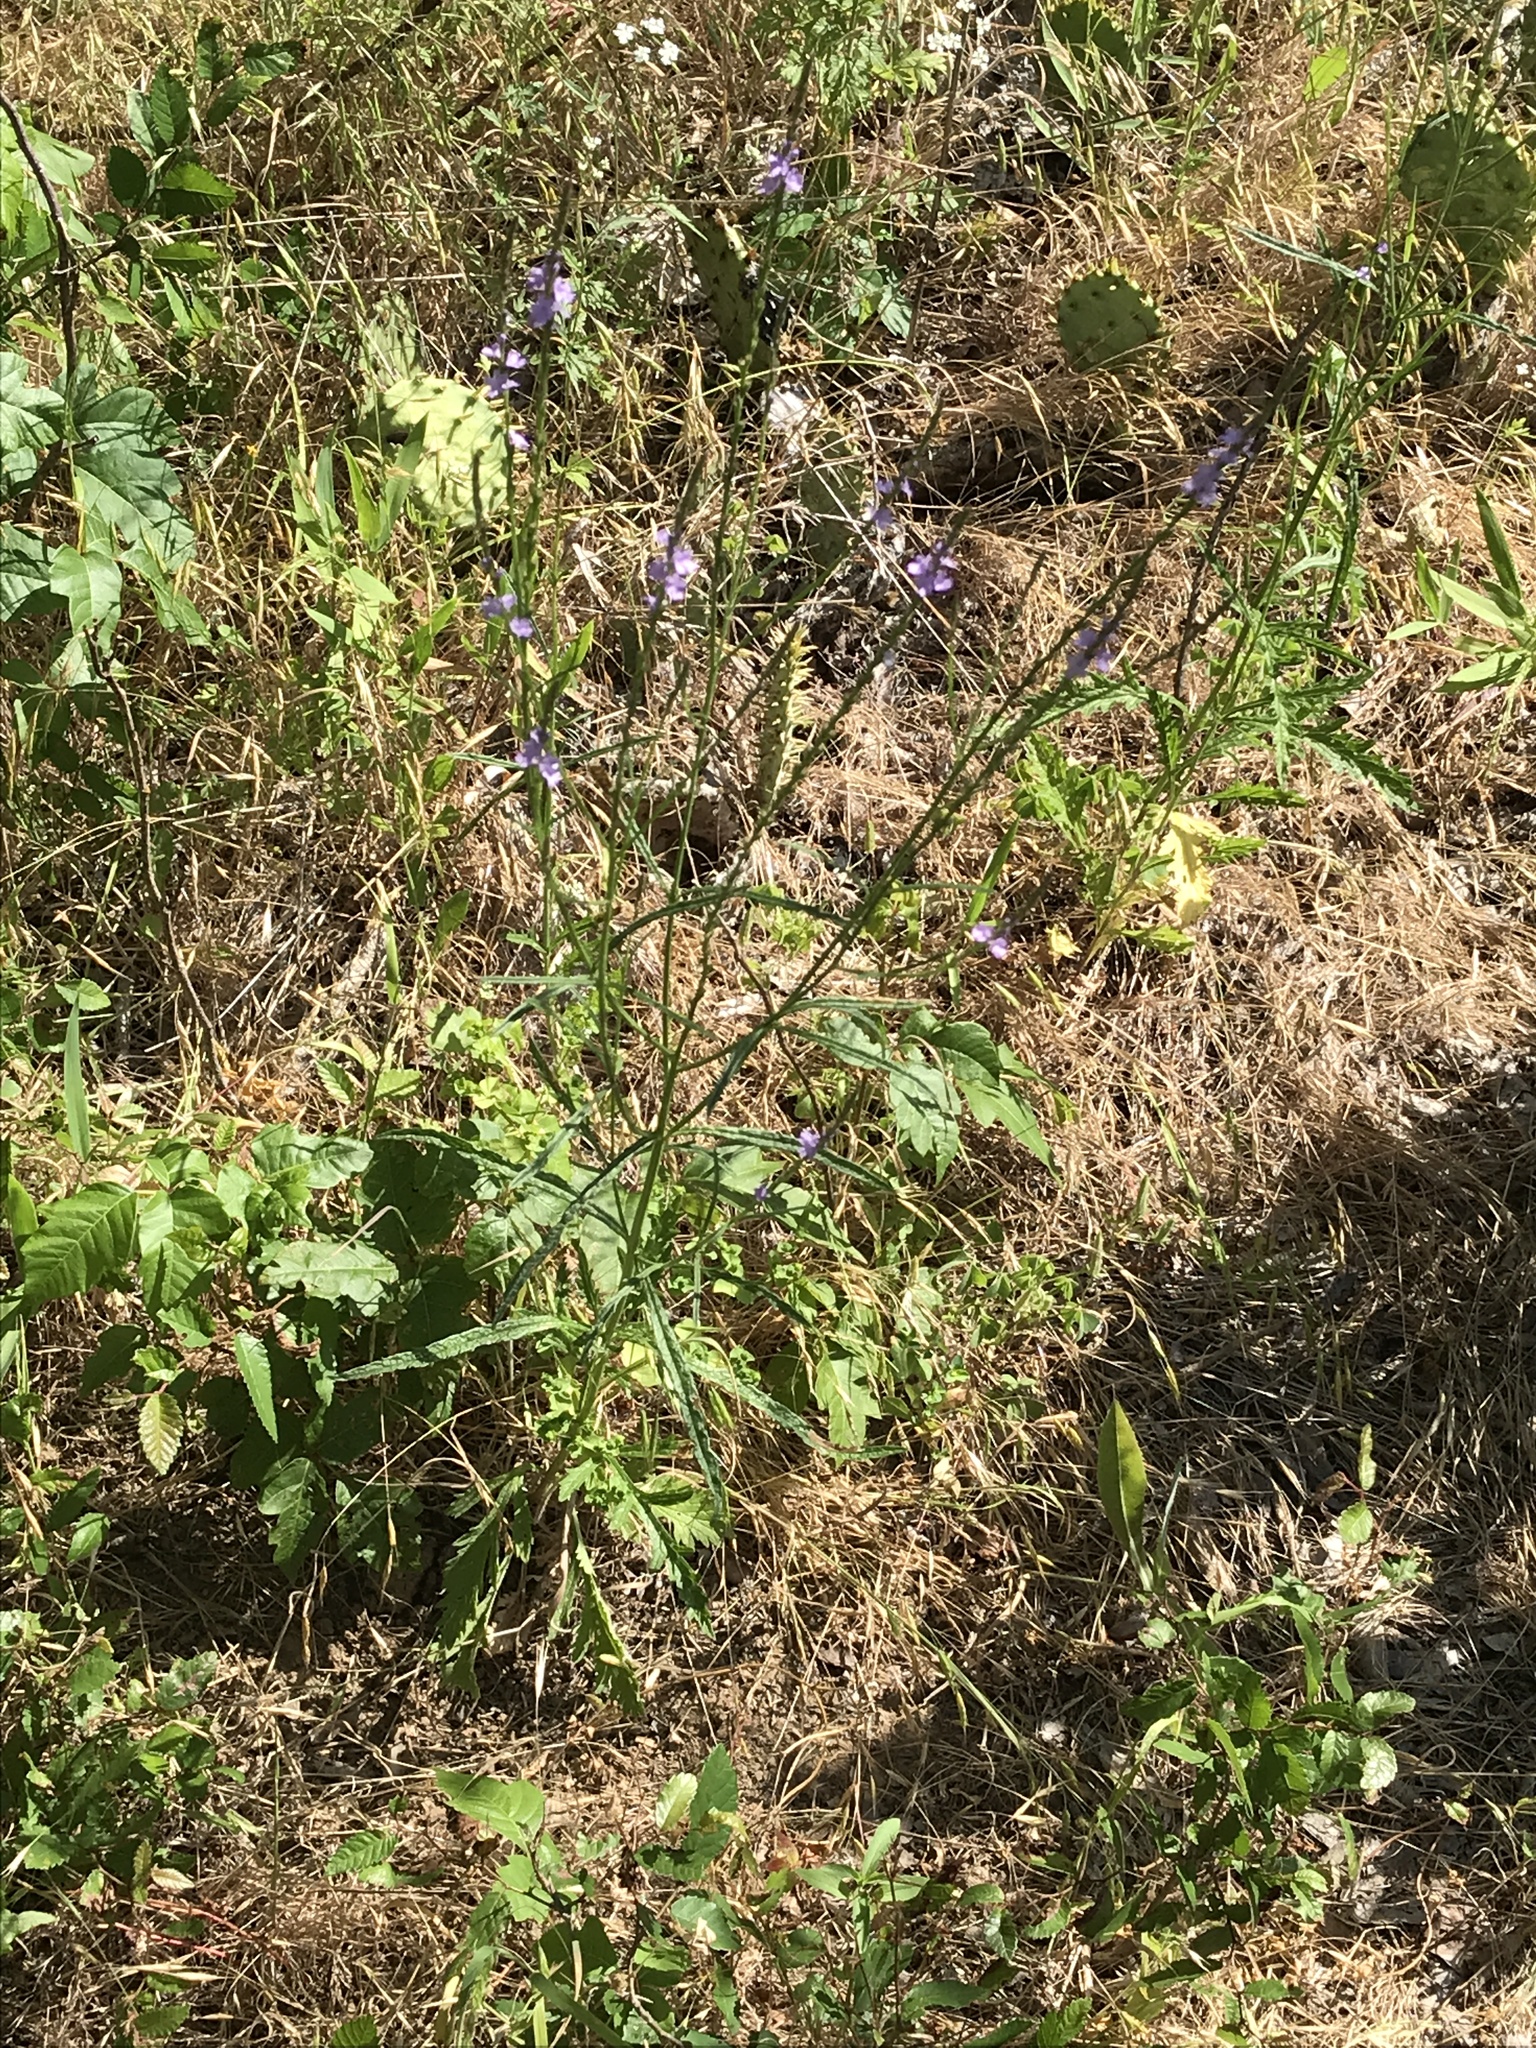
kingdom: Plantae
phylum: Tracheophyta
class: Magnoliopsida
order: Lamiales
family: Verbenaceae
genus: Verbena
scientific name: Verbena halei
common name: Texas vervain
